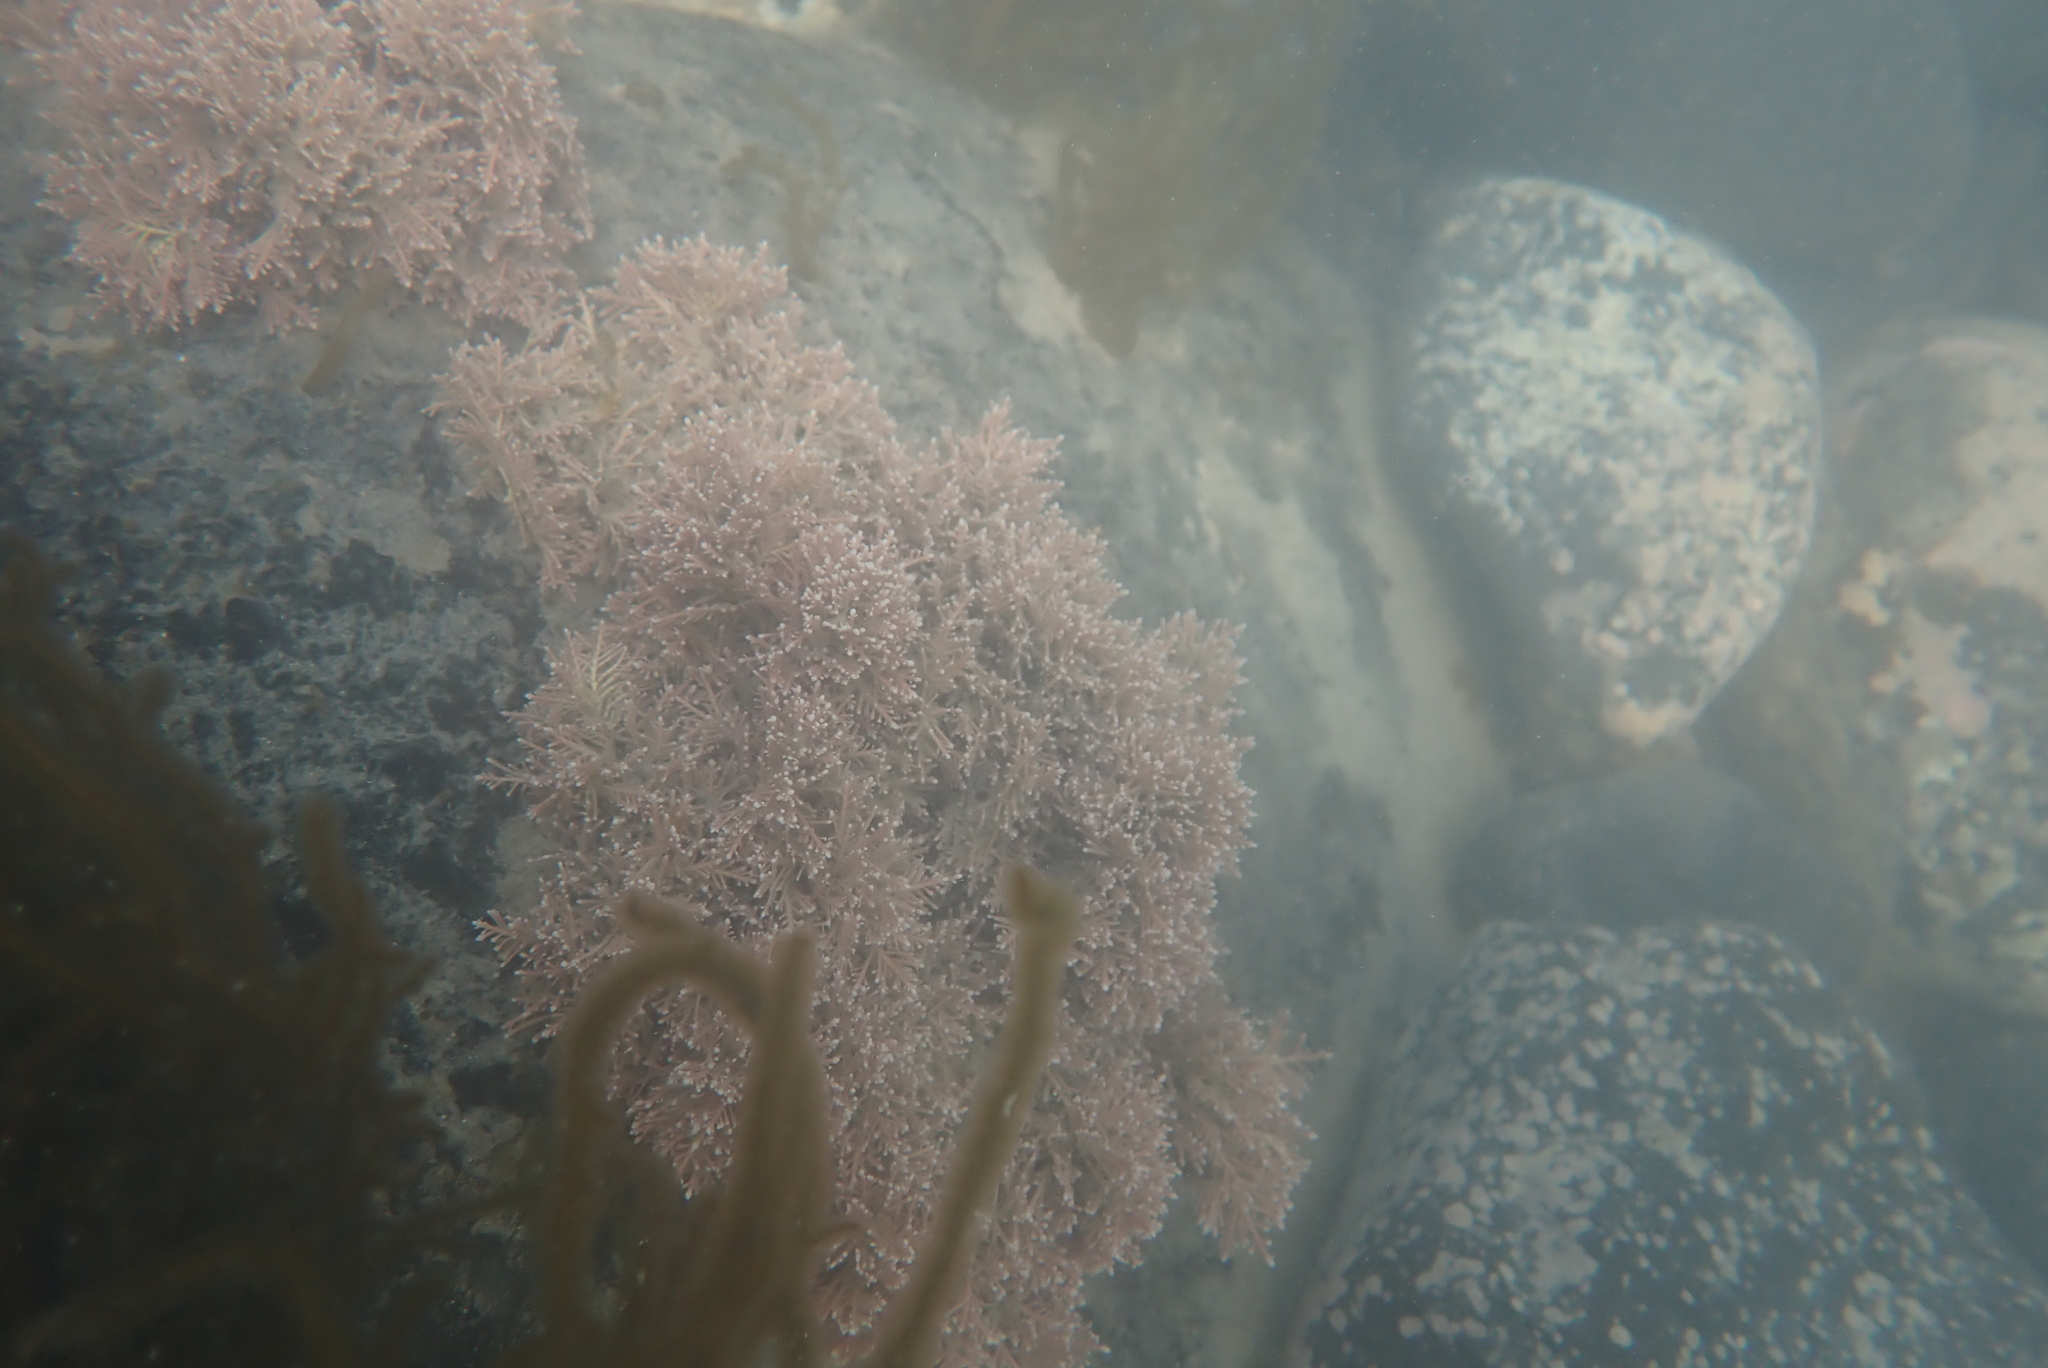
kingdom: Plantae
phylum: Rhodophyta
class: Florideophyceae
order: Corallinales
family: Corallinaceae
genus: Corallina
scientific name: Corallina officinalis
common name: Coral weed
